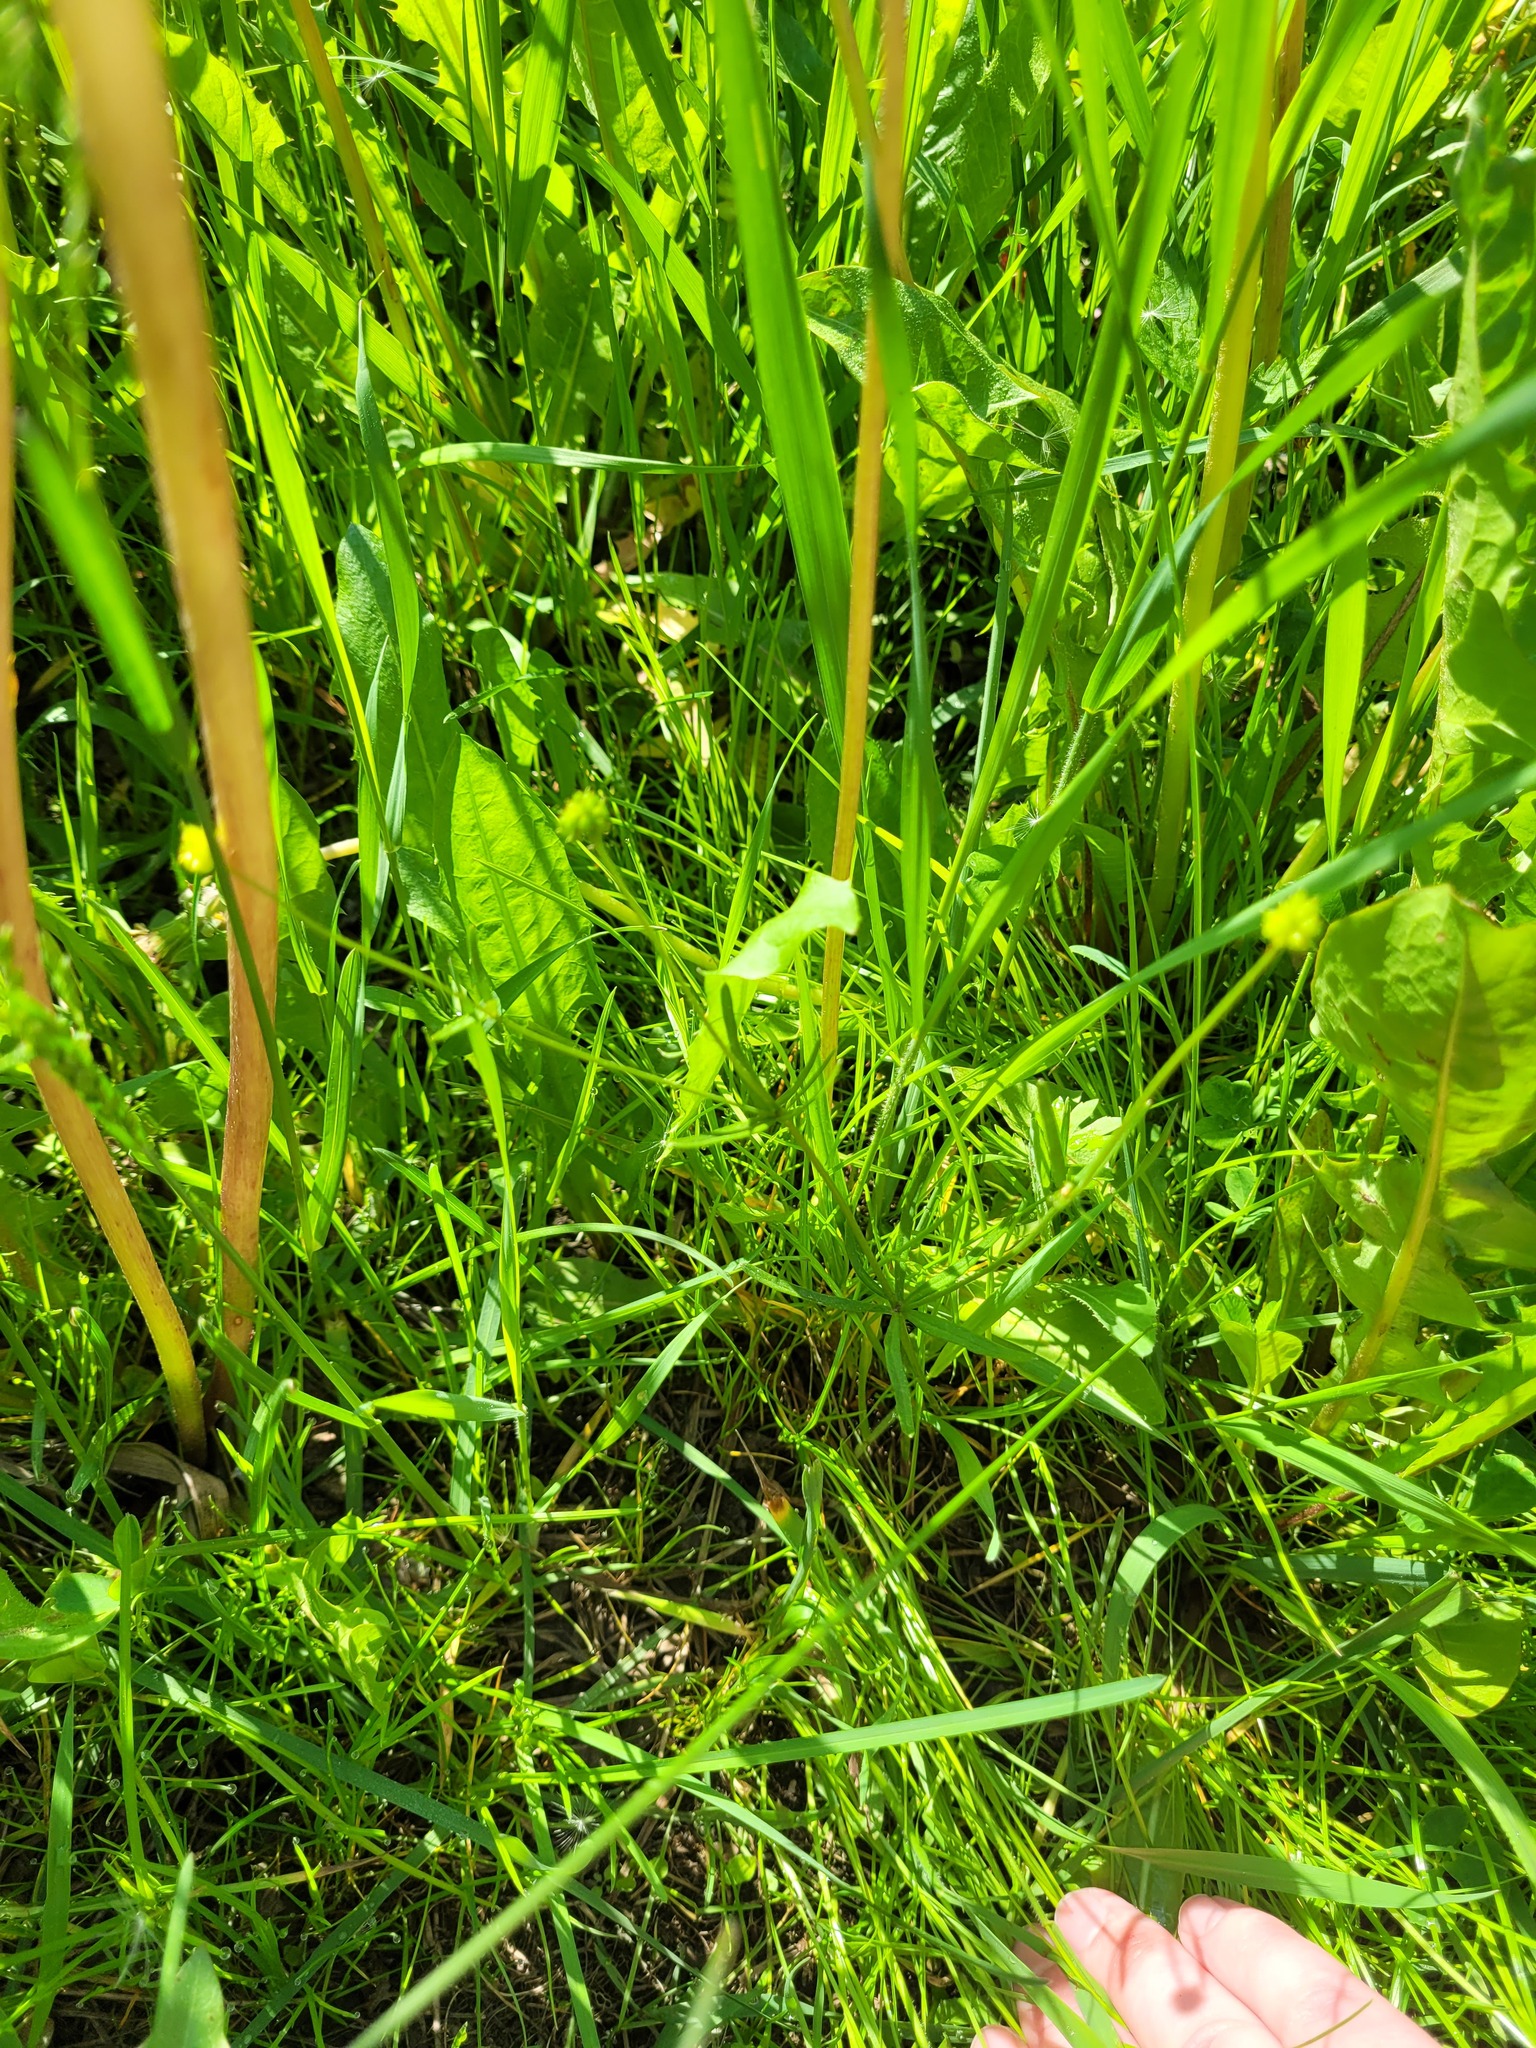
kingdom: Plantae
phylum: Tracheophyta
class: Magnoliopsida
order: Ranunculales
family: Ranunculaceae
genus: Ranunculus
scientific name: Ranunculus auricomus
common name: Goldilocks buttercup
